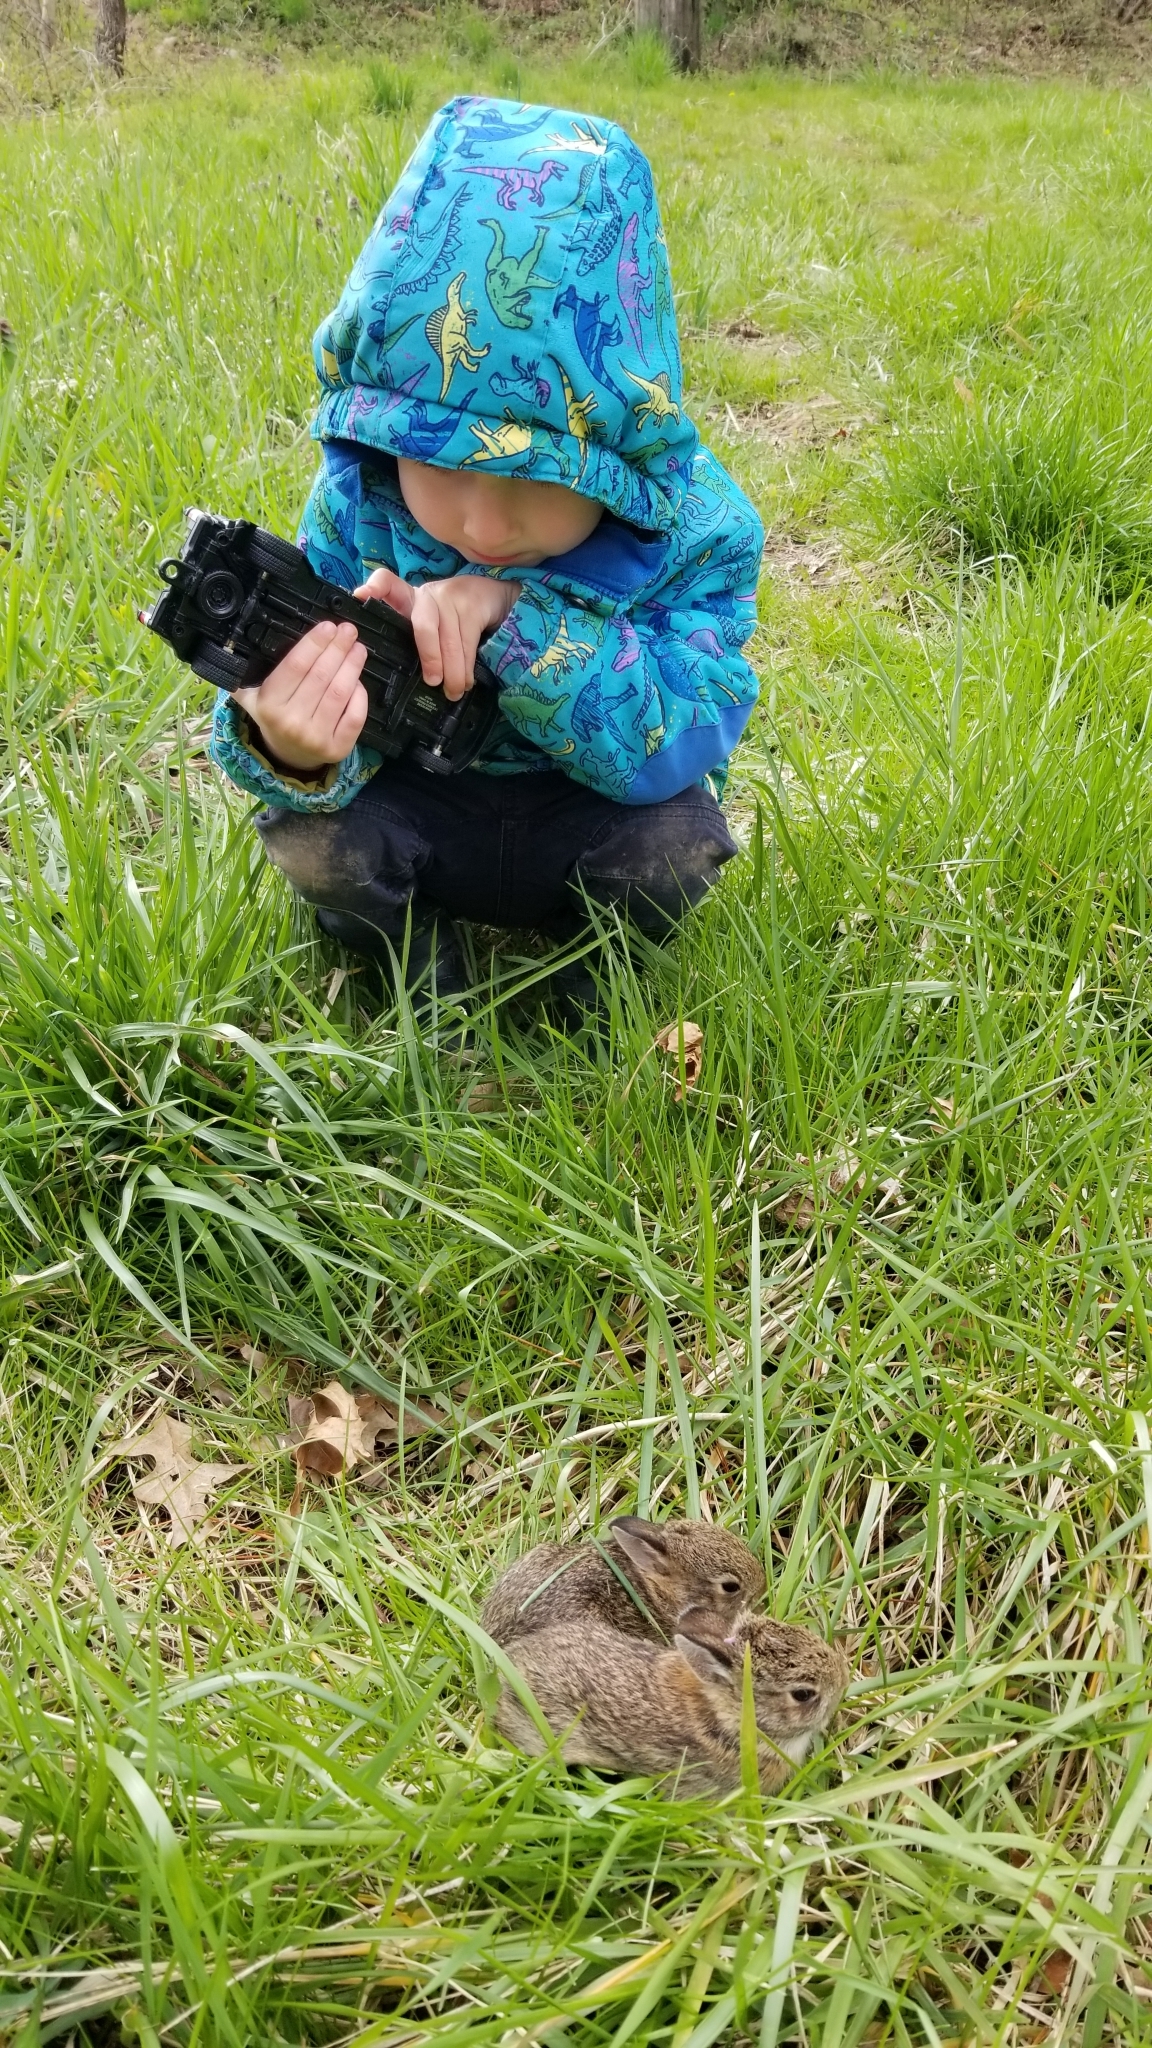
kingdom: Animalia
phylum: Chordata
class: Mammalia
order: Lagomorpha
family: Leporidae
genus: Sylvilagus
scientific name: Sylvilagus floridanus
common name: Eastern cottontail
